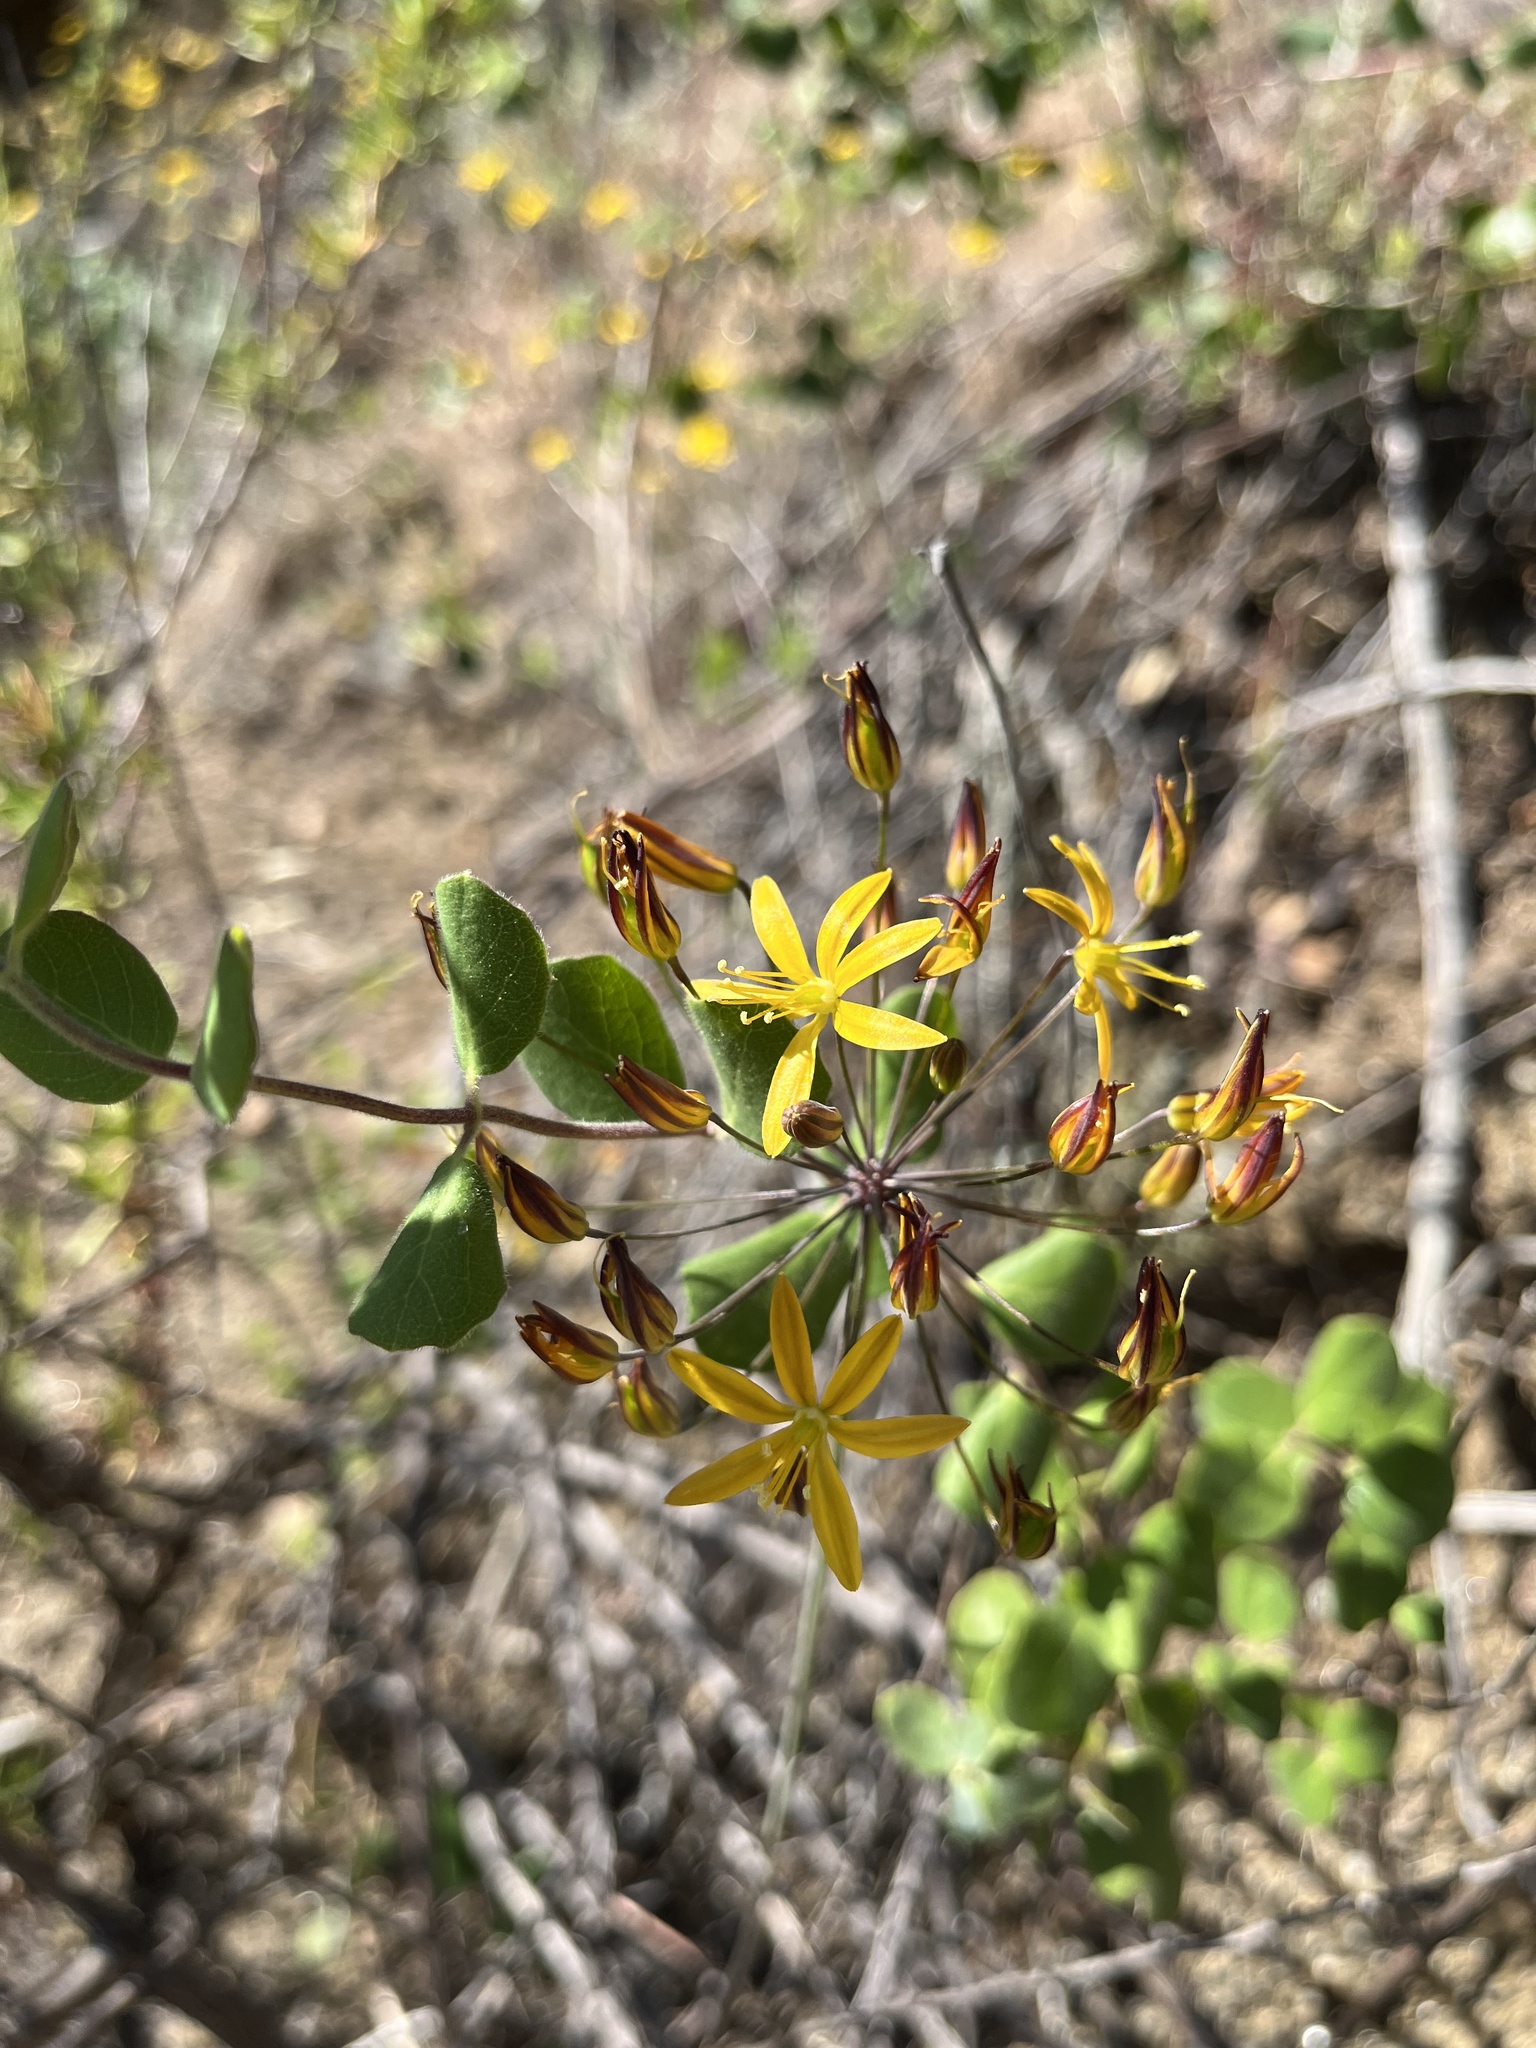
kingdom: Plantae
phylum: Tracheophyta
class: Liliopsida
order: Asparagales
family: Asparagaceae
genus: Bloomeria
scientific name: Bloomeria crocea
